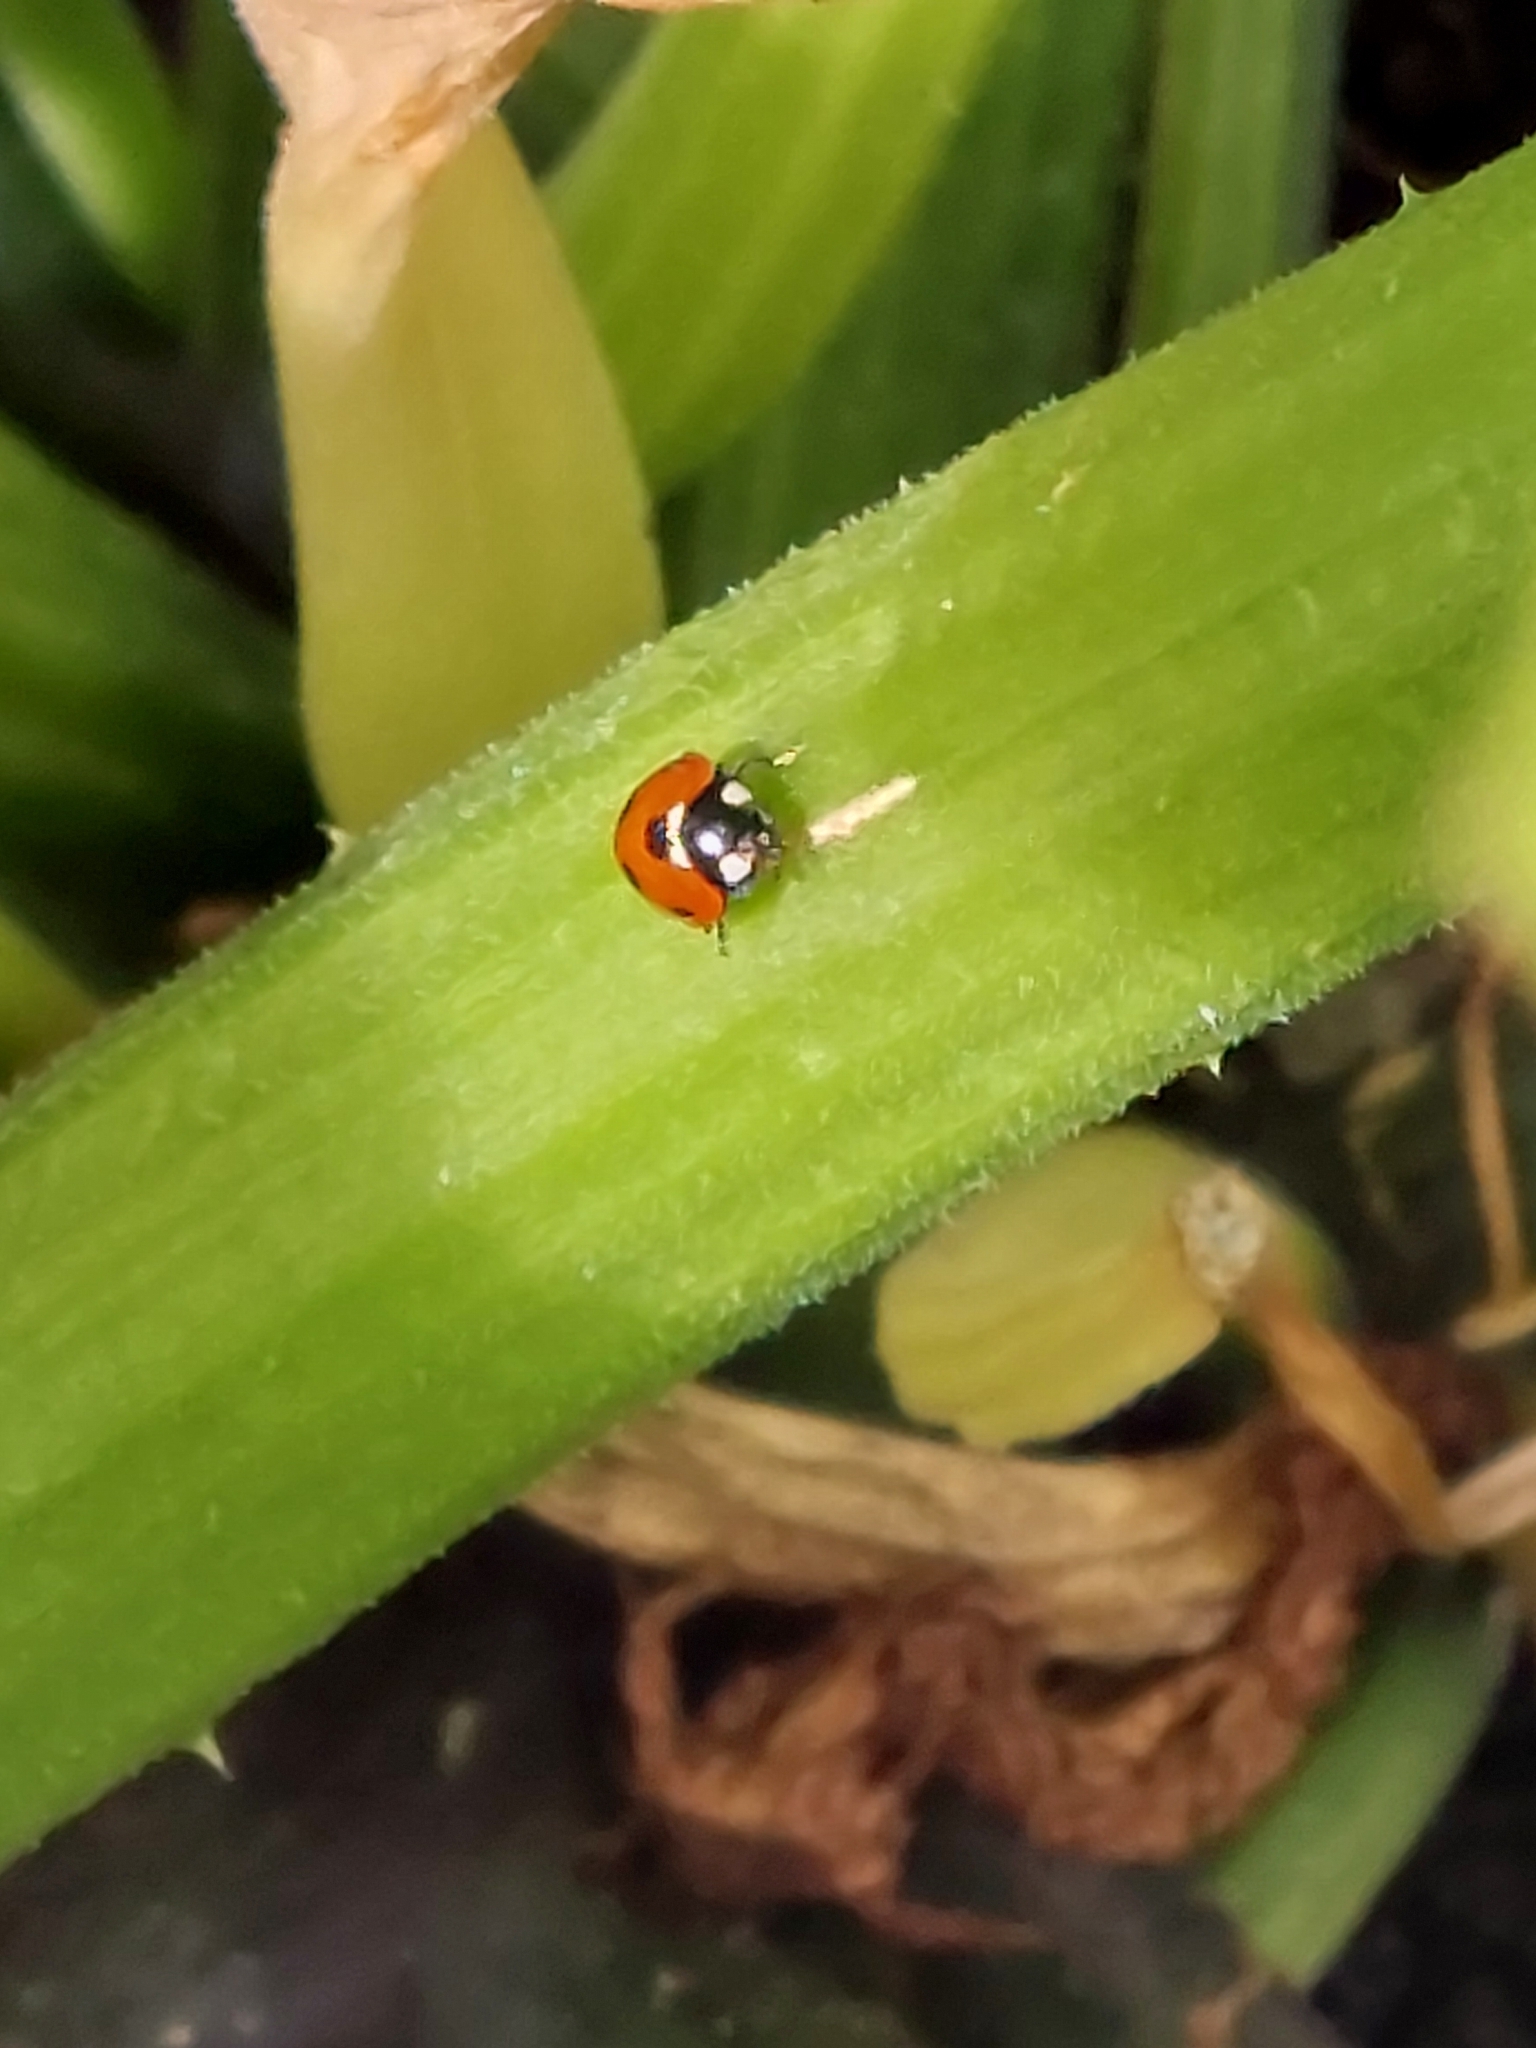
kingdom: Animalia
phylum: Arthropoda
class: Insecta
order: Coleoptera
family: Coccinellidae
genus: Coccinella
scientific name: Coccinella septempunctata
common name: Sevenspotted lady beetle
